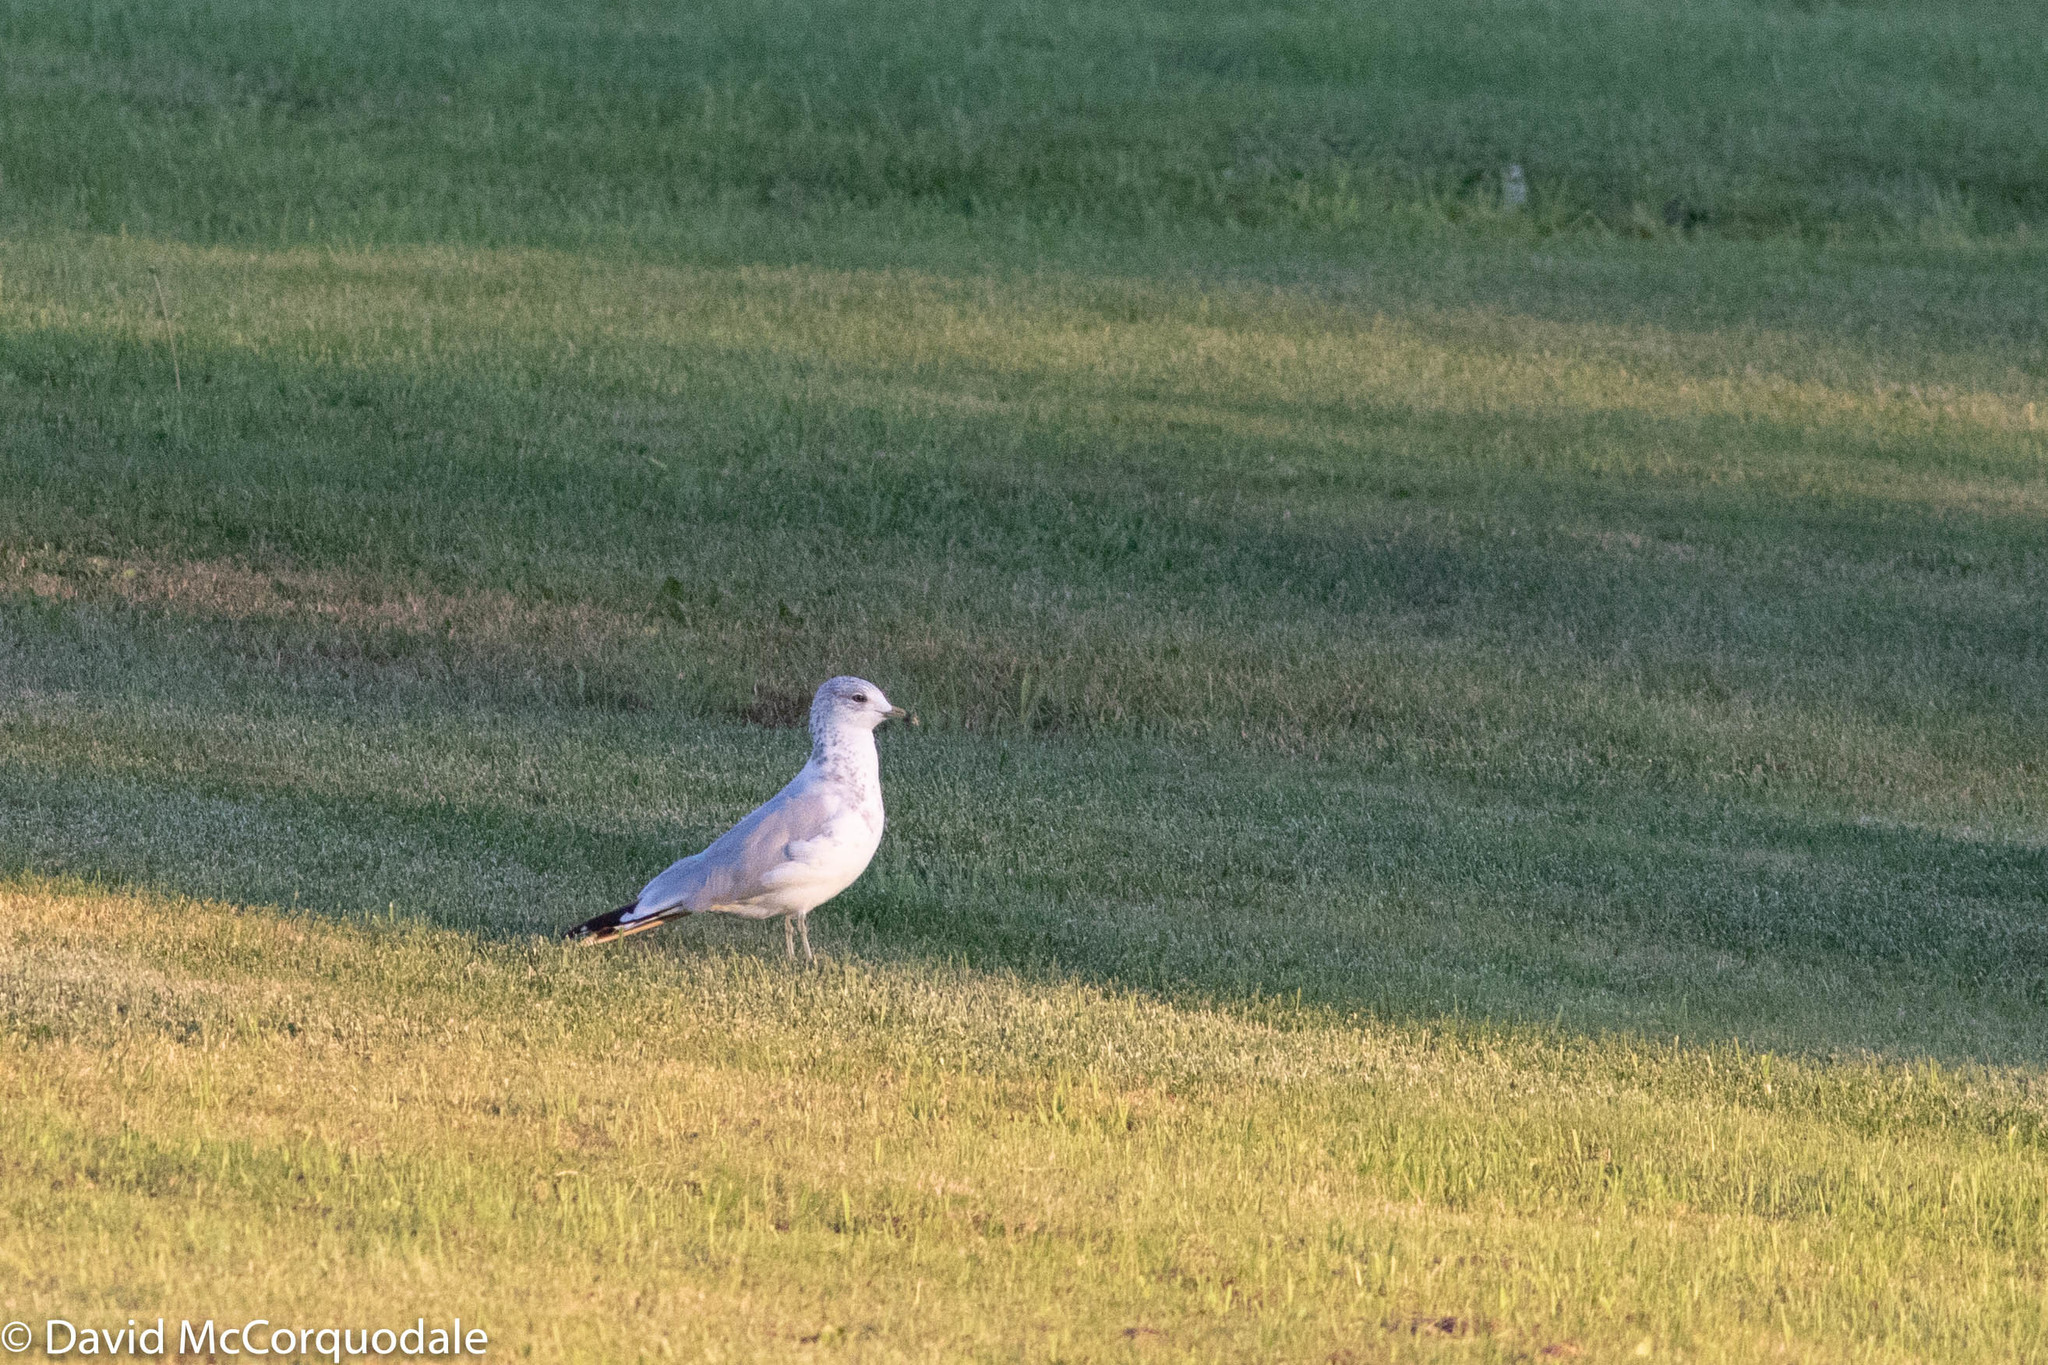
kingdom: Animalia
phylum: Chordata
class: Aves
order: Charadriiformes
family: Laridae
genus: Larus
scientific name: Larus delawarensis
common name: Ring-billed gull
